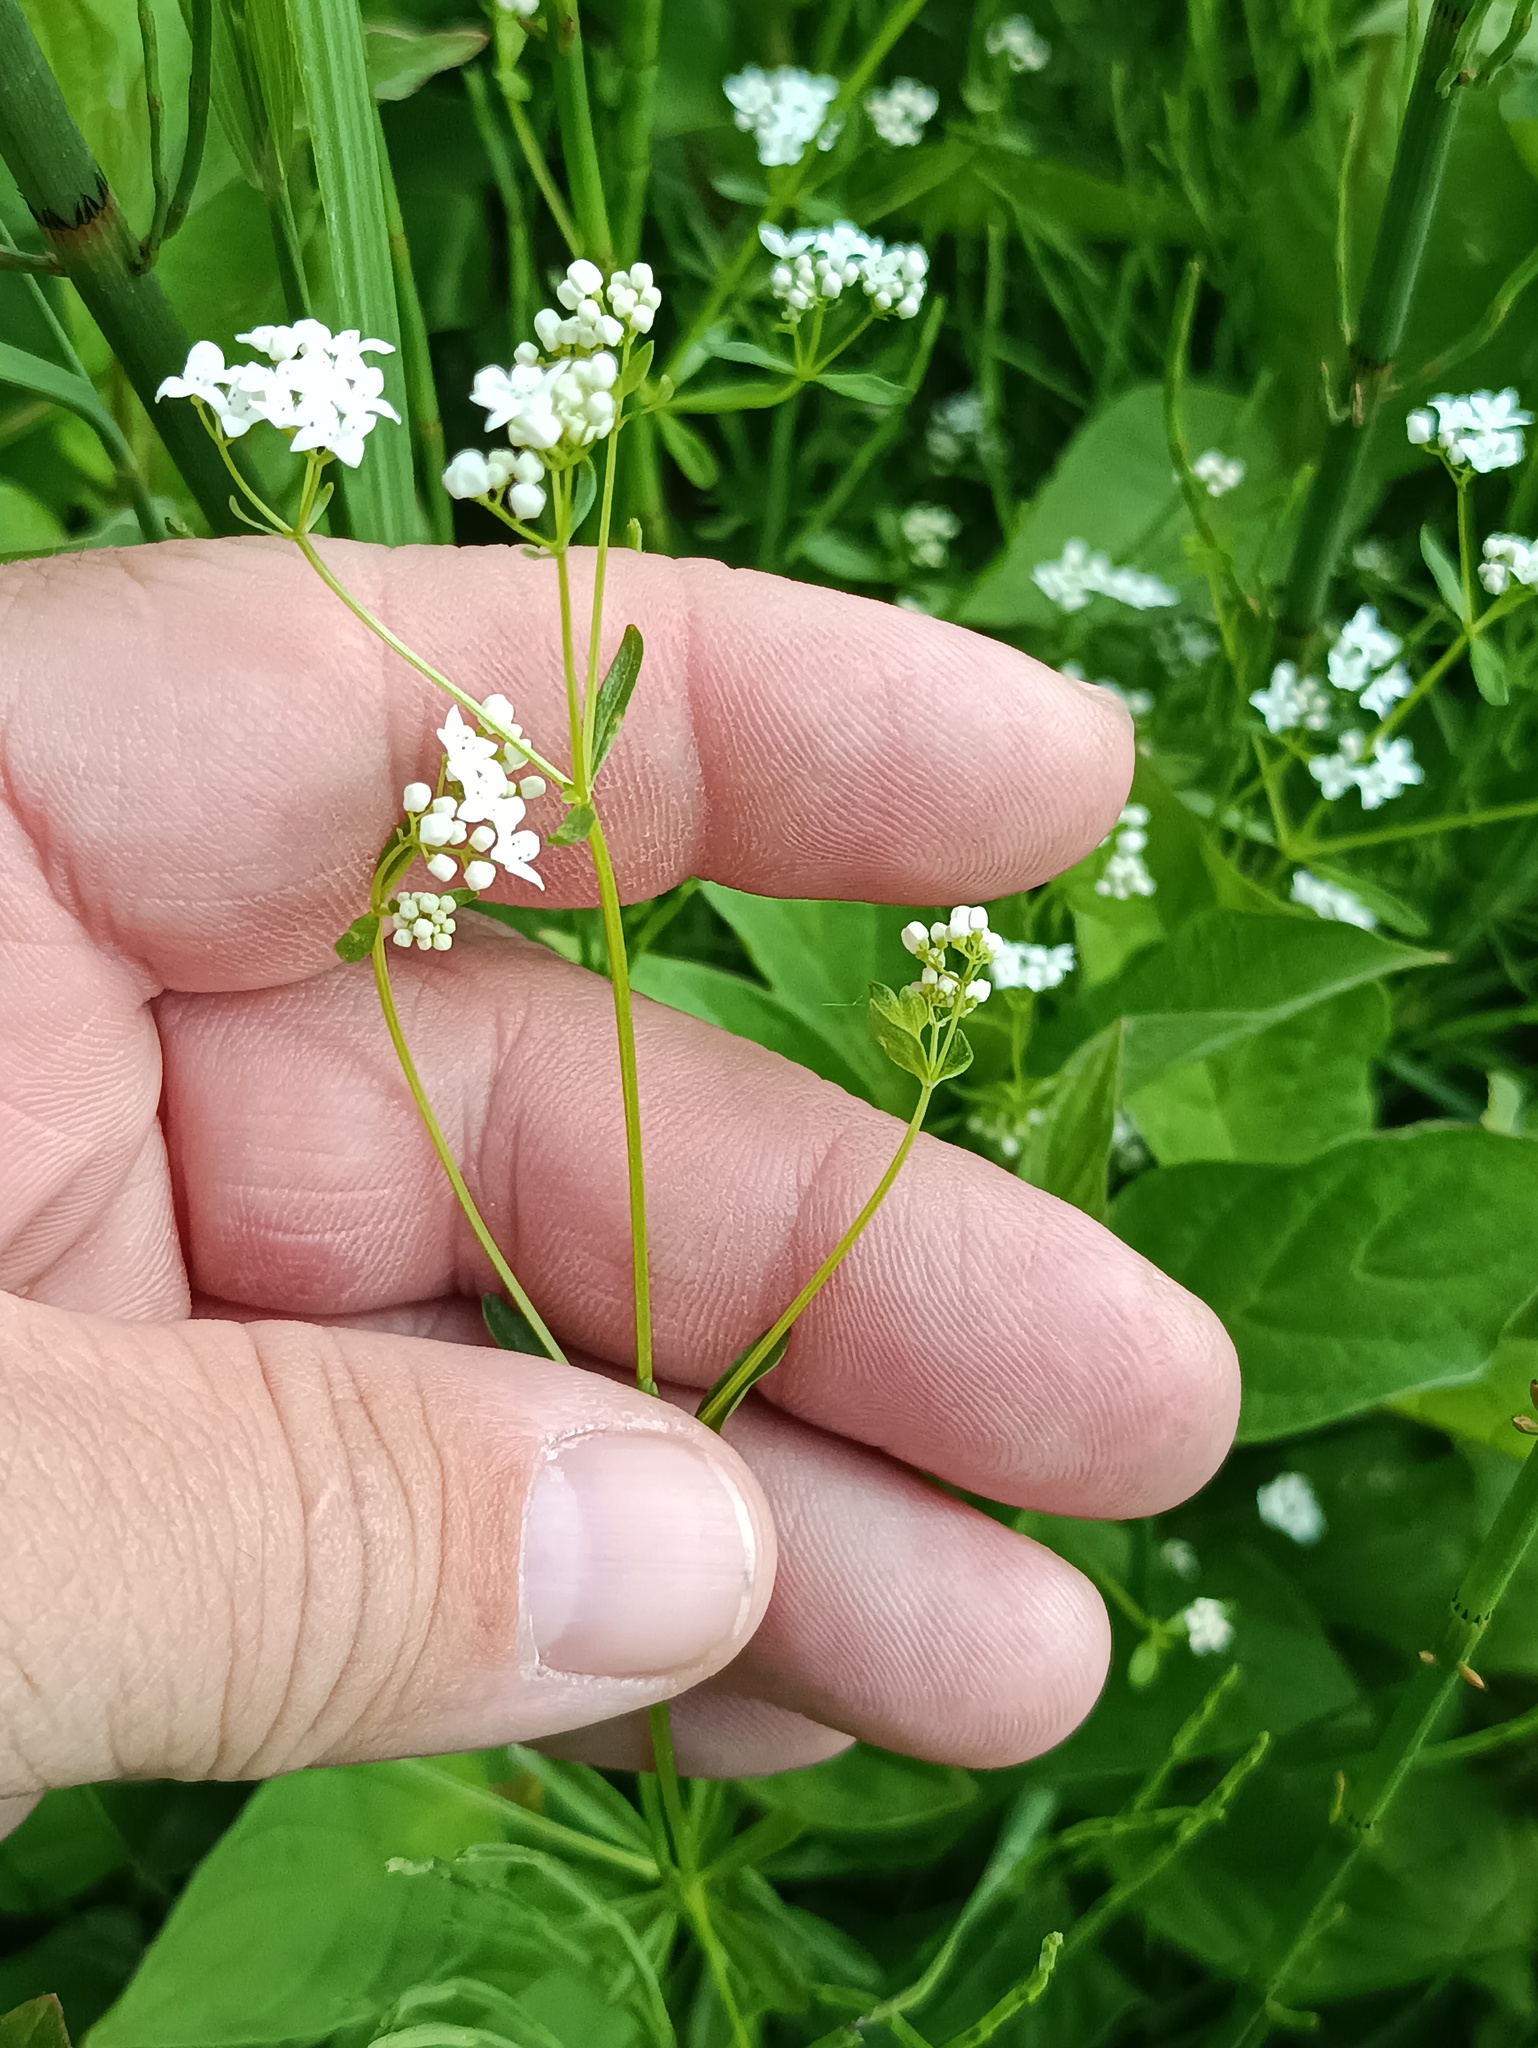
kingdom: Plantae
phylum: Tracheophyta
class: Magnoliopsida
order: Gentianales
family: Rubiaceae
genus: Galium
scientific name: Galium palustre
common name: Common marsh-bedstraw
